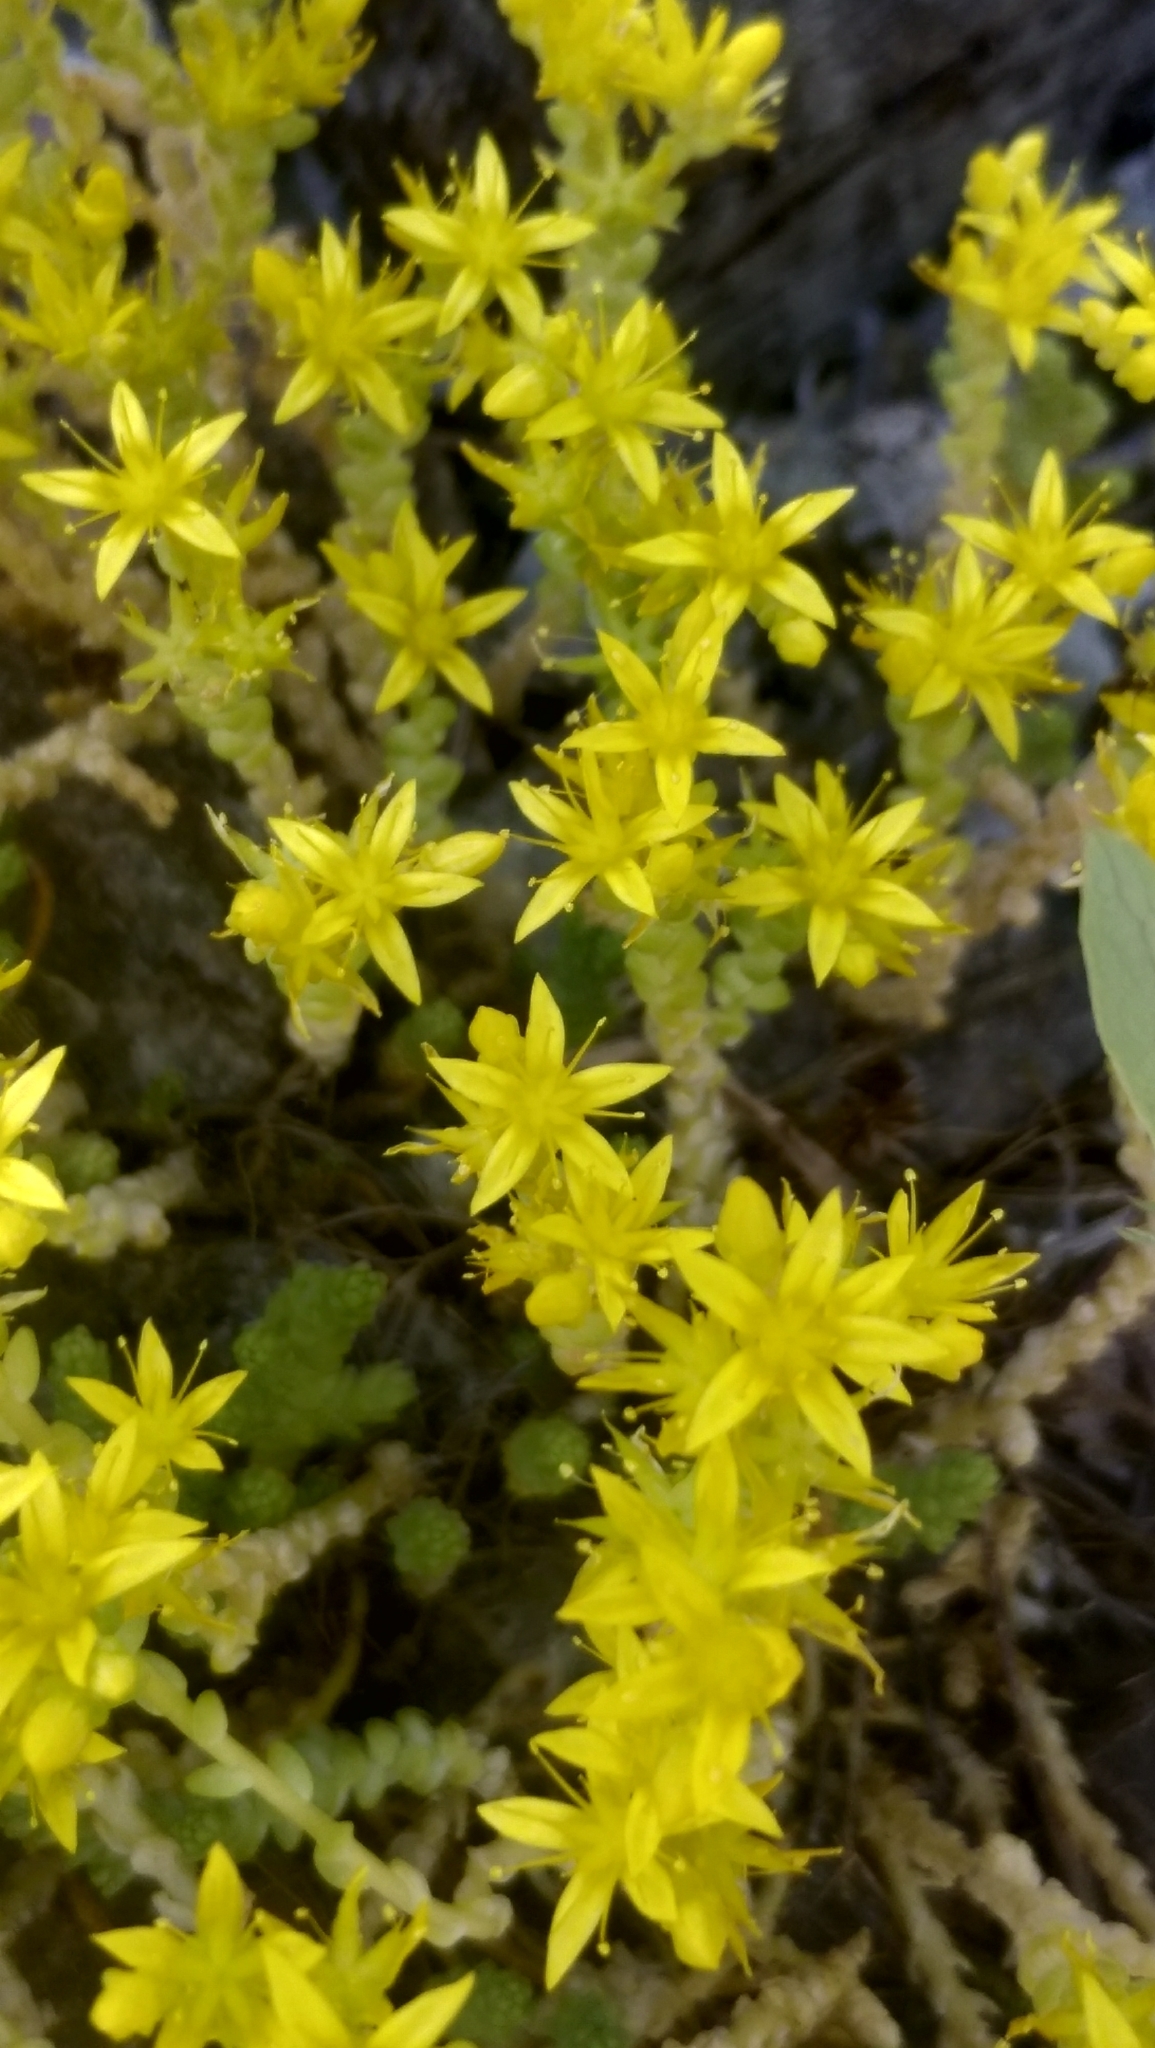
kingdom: Plantae
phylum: Tracheophyta
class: Magnoliopsida
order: Saxifragales
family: Crassulaceae
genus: Sedum
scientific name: Sedum acre
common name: Biting stonecrop
